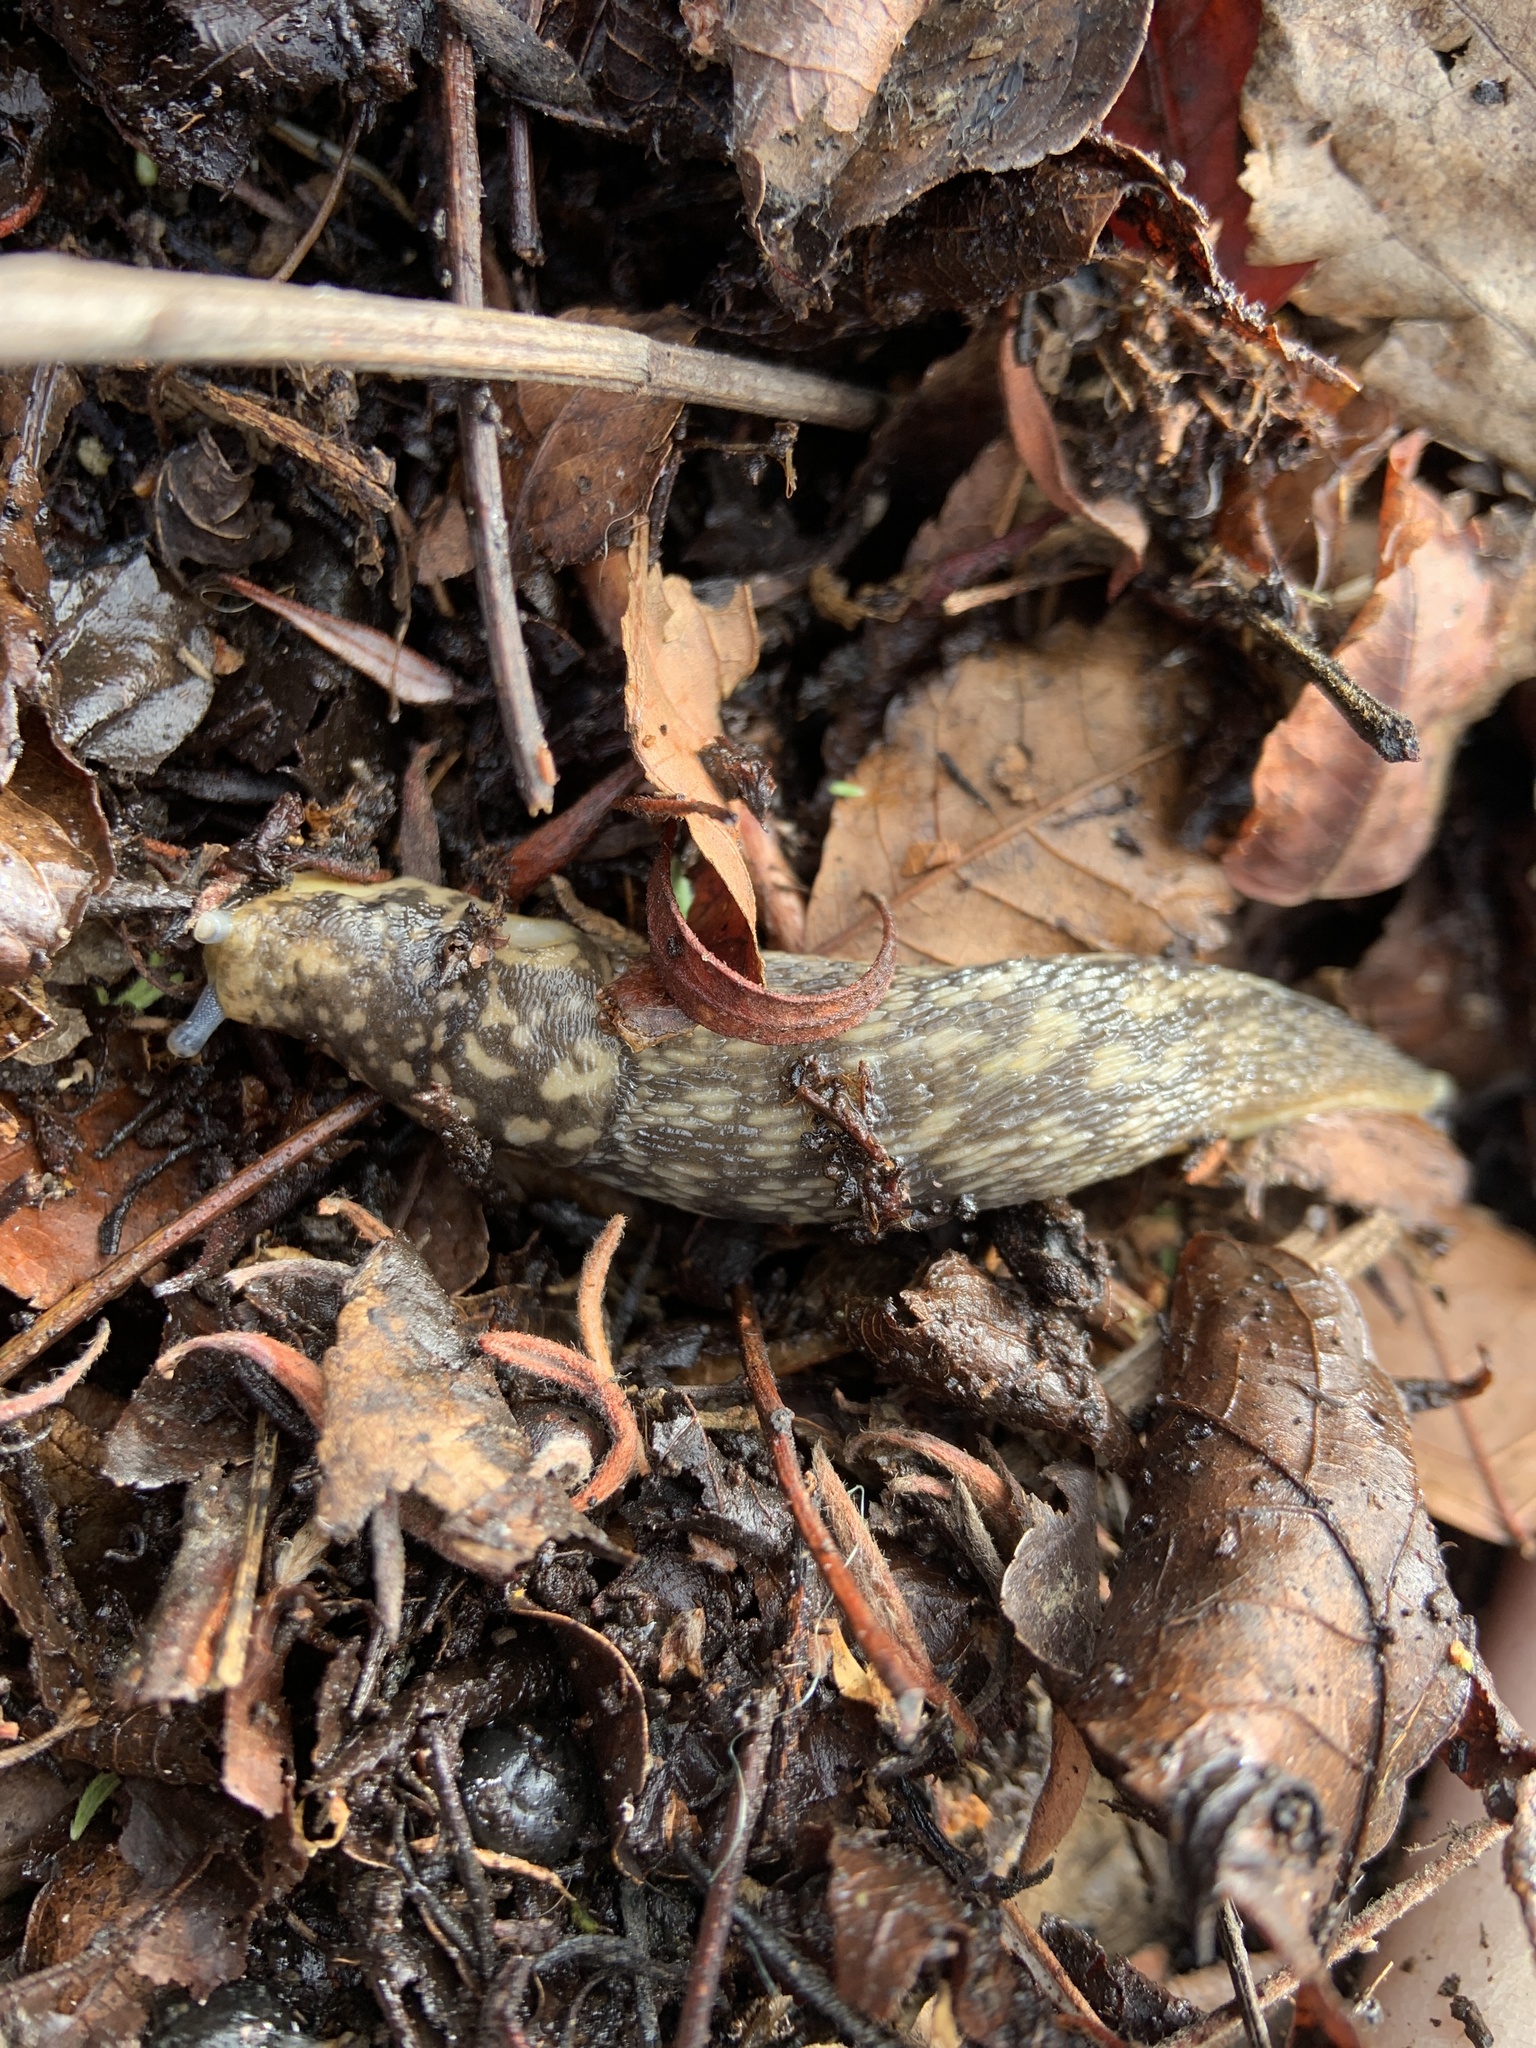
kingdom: Animalia
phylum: Mollusca
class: Gastropoda
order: Stylommatophora
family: Limacidae
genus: Limacus
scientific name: Limacus flavus
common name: Yellow gardenslug
